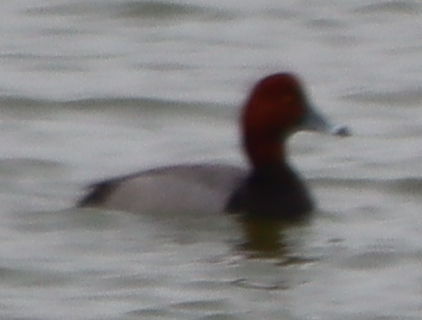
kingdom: Animalia
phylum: Chordata
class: Aves
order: Anseriformes
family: Anatidae
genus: Aythya
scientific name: Aythya americana
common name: Redhead
